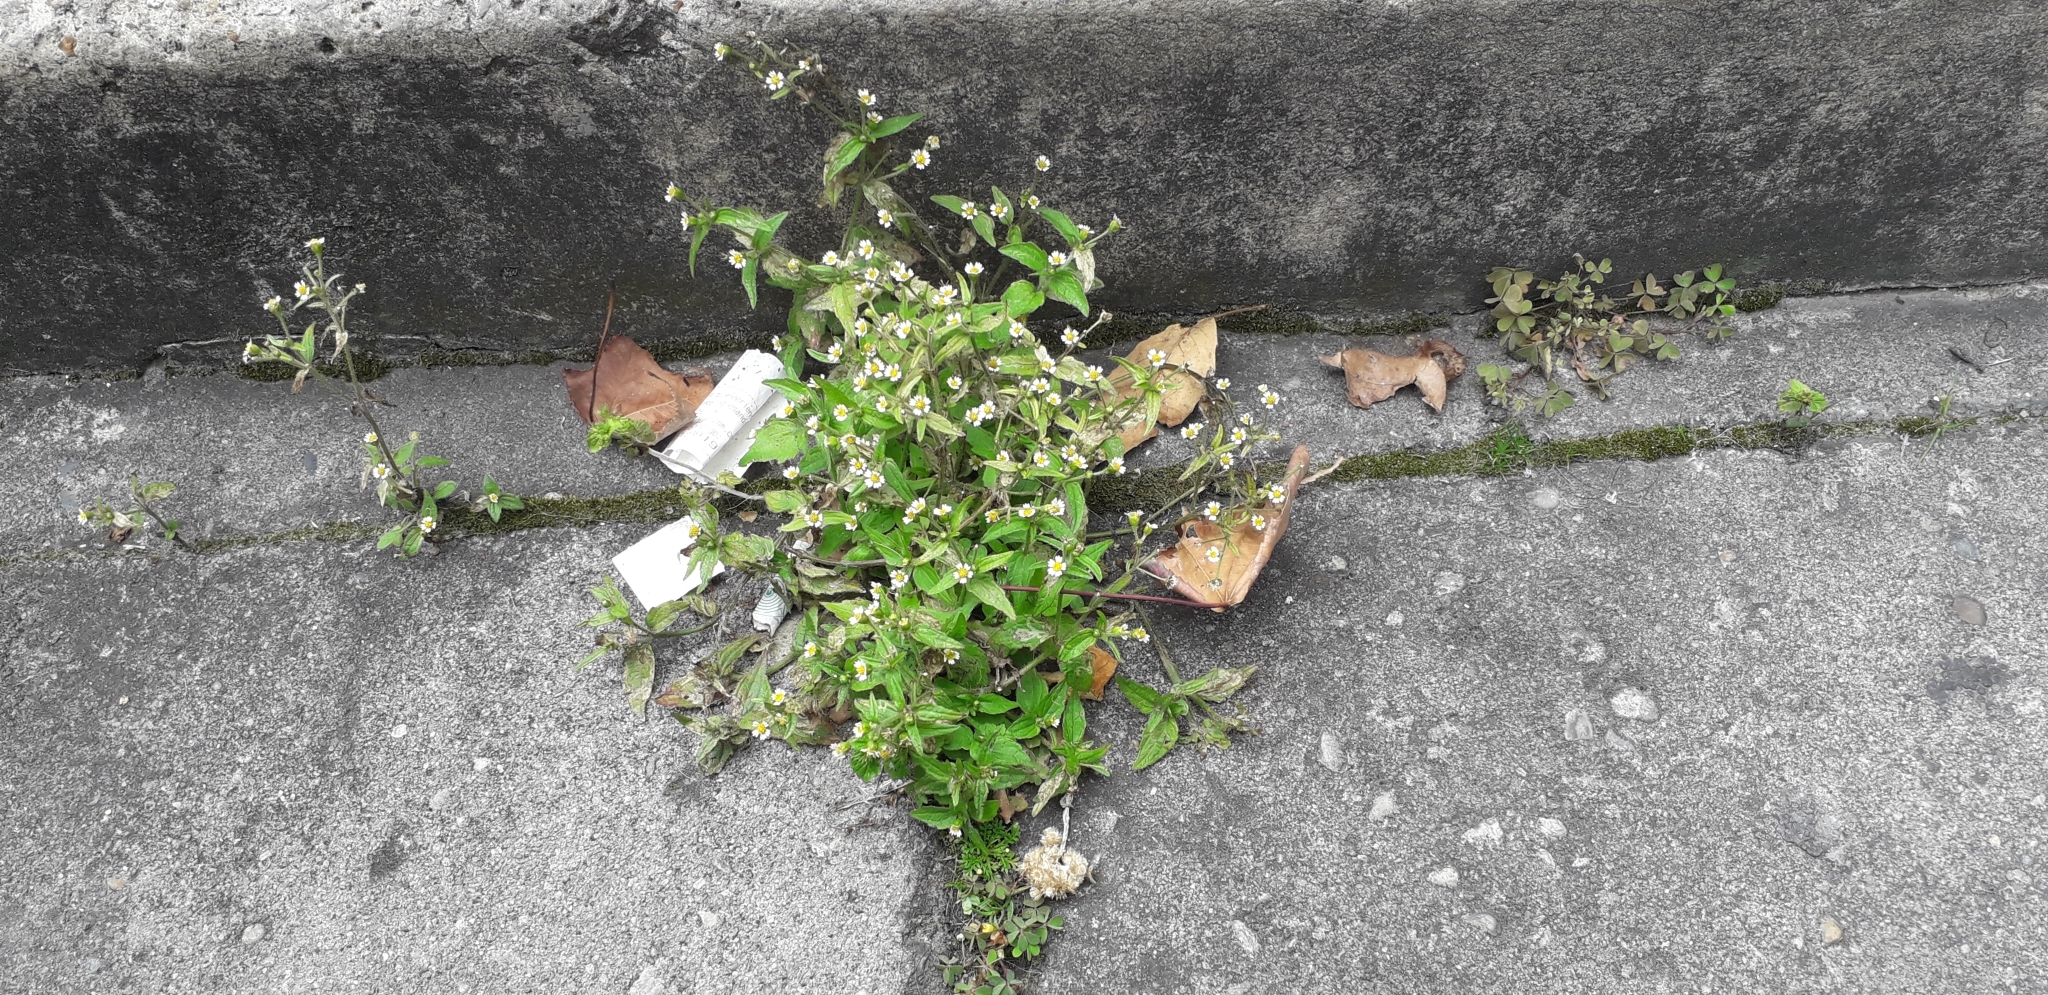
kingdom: Plantae
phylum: Tracheophyta
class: Magnoliopsida
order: Asterales
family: Asteraceae
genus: Galinsoga
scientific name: Galinsoga quadriradiata
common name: Shaggy soldier
